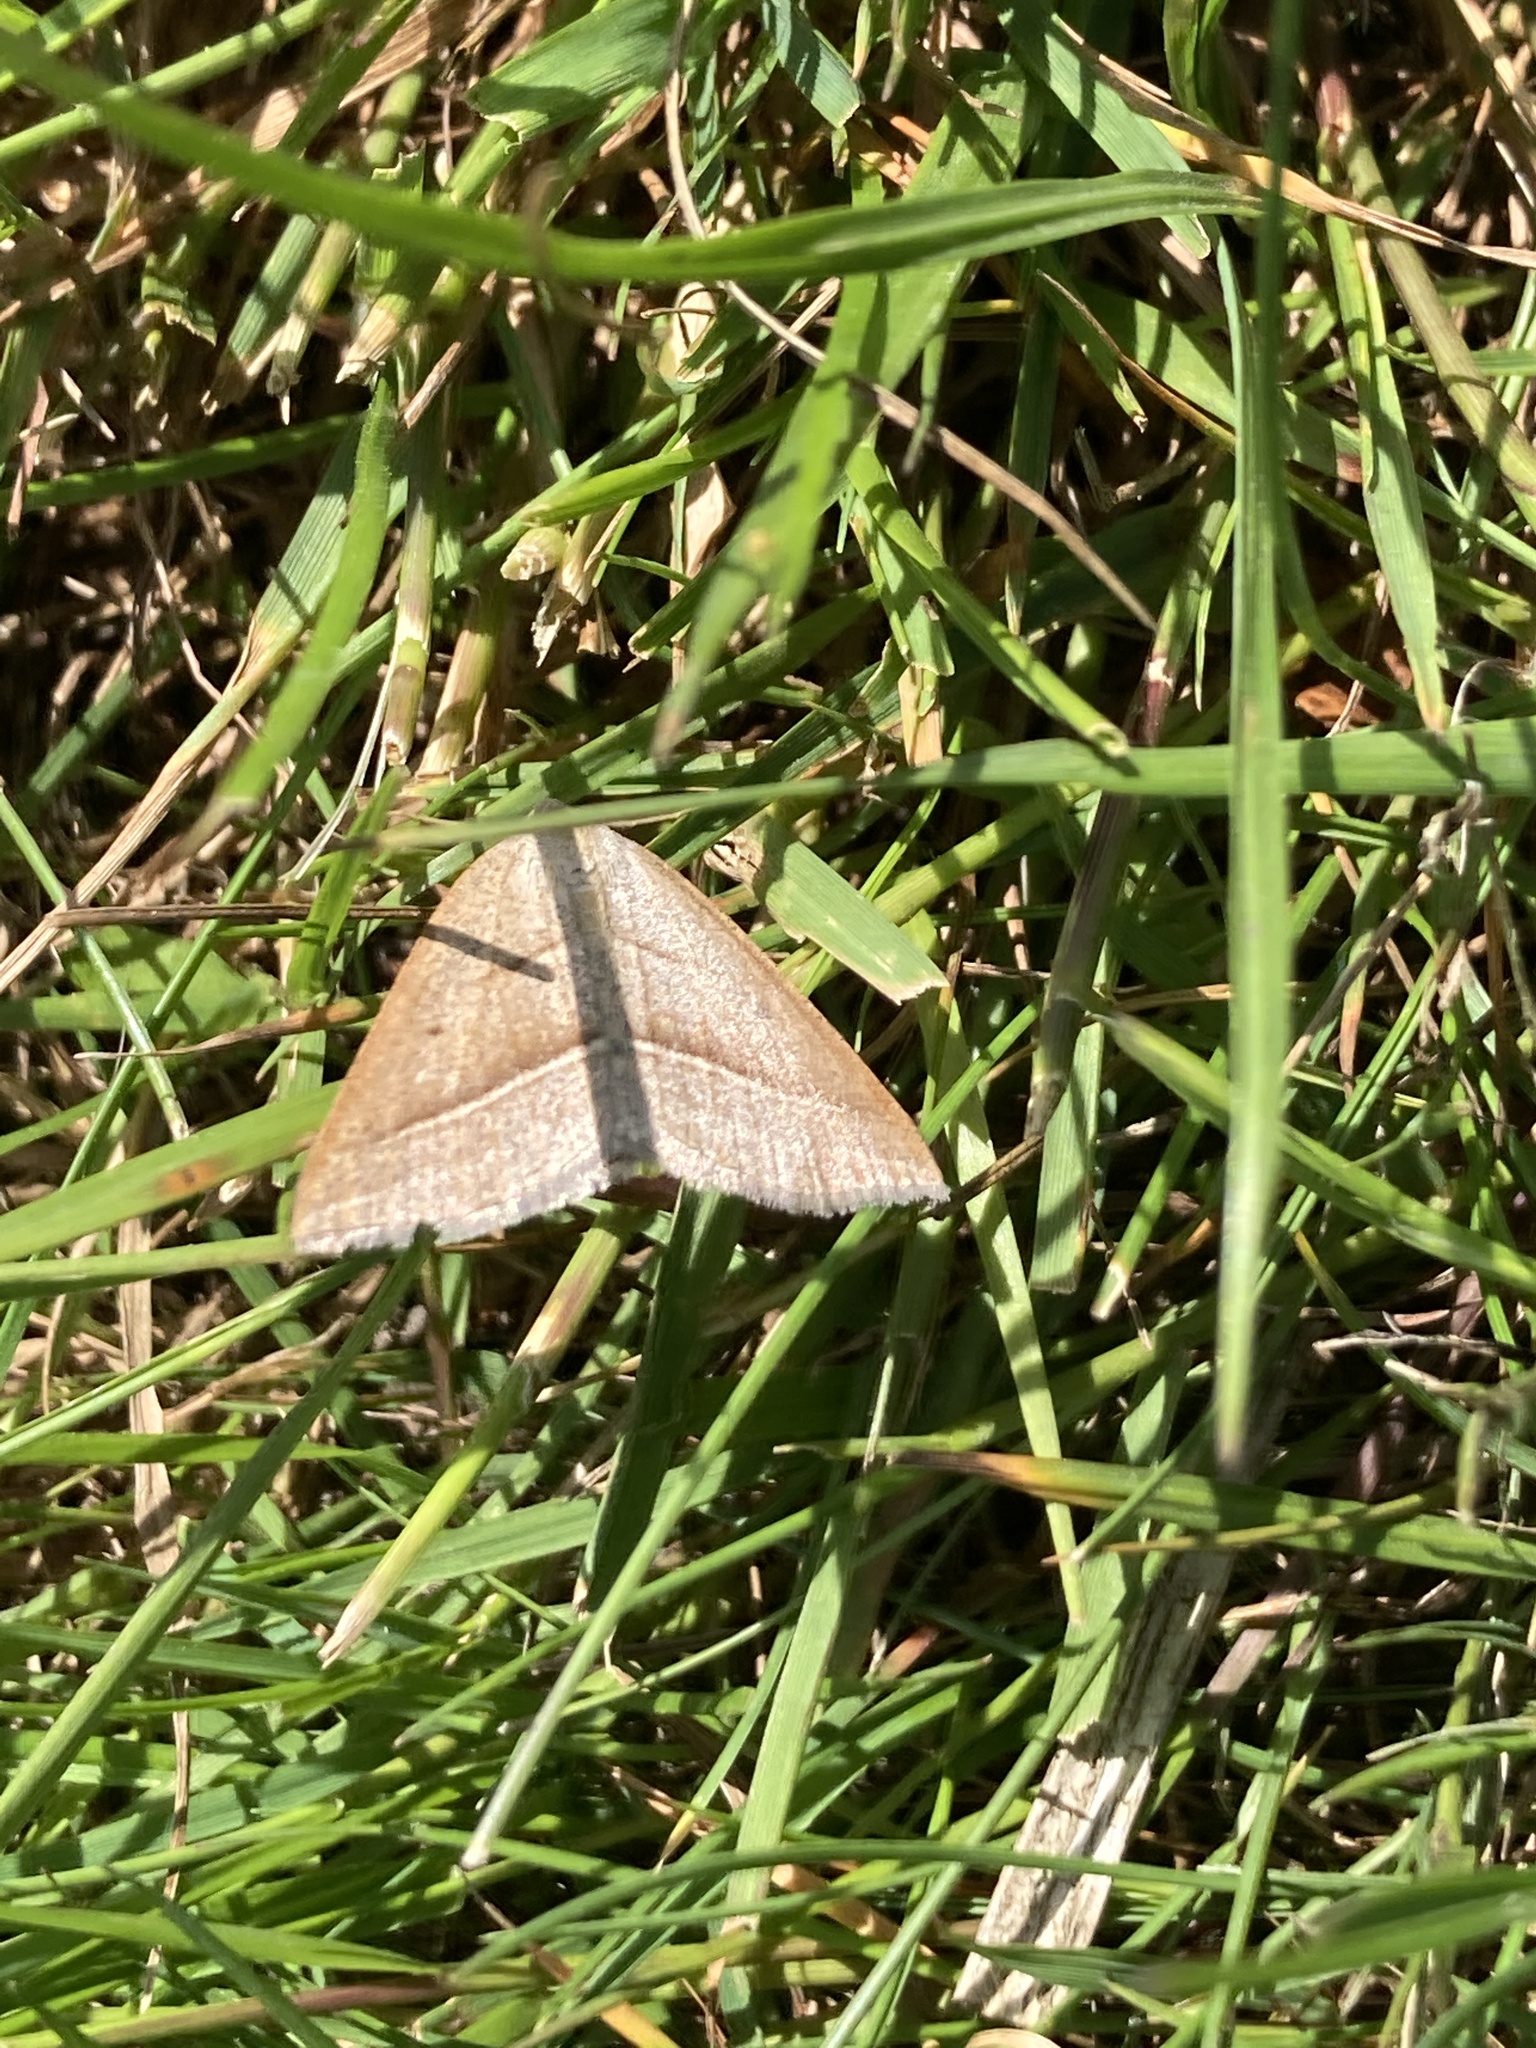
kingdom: Animalia
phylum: Arthropoda
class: Insecta
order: Lepidoptera
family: Pterophoridae
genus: Pterophorus
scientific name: Pterophorus Petrophora chlorosata
